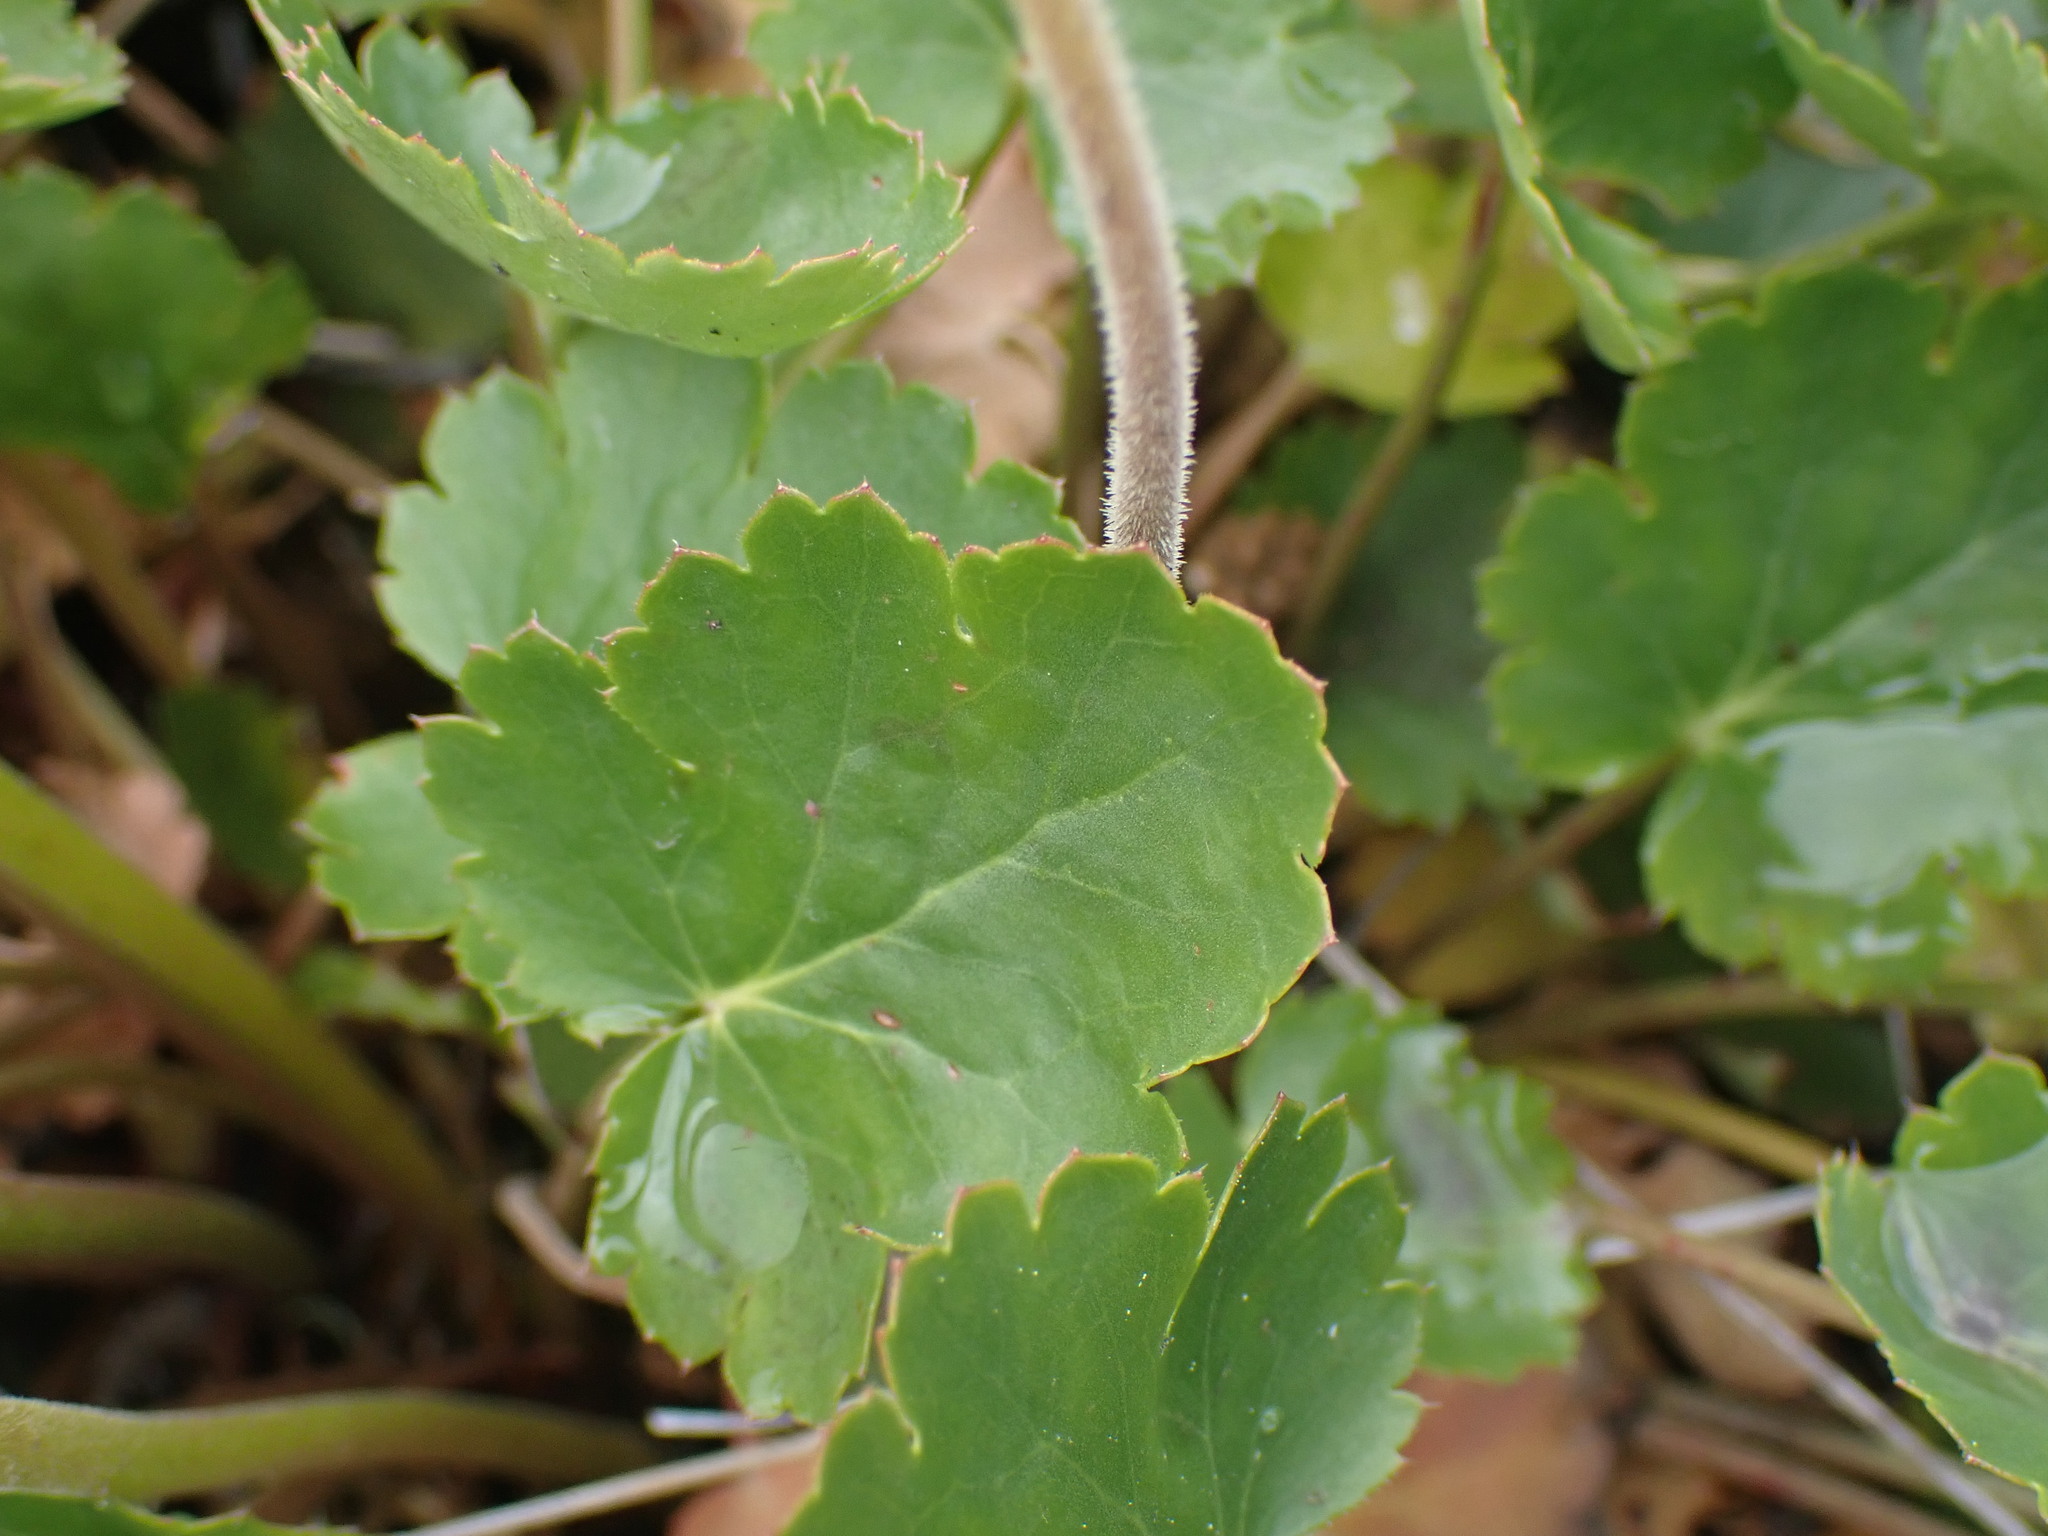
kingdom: Plantae
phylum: Tracheophyta
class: Magnoliopsida
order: Saxifragales
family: Saxifragaceae
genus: Heuchera
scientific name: Heuchera cylindrica
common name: Mat alumroot
